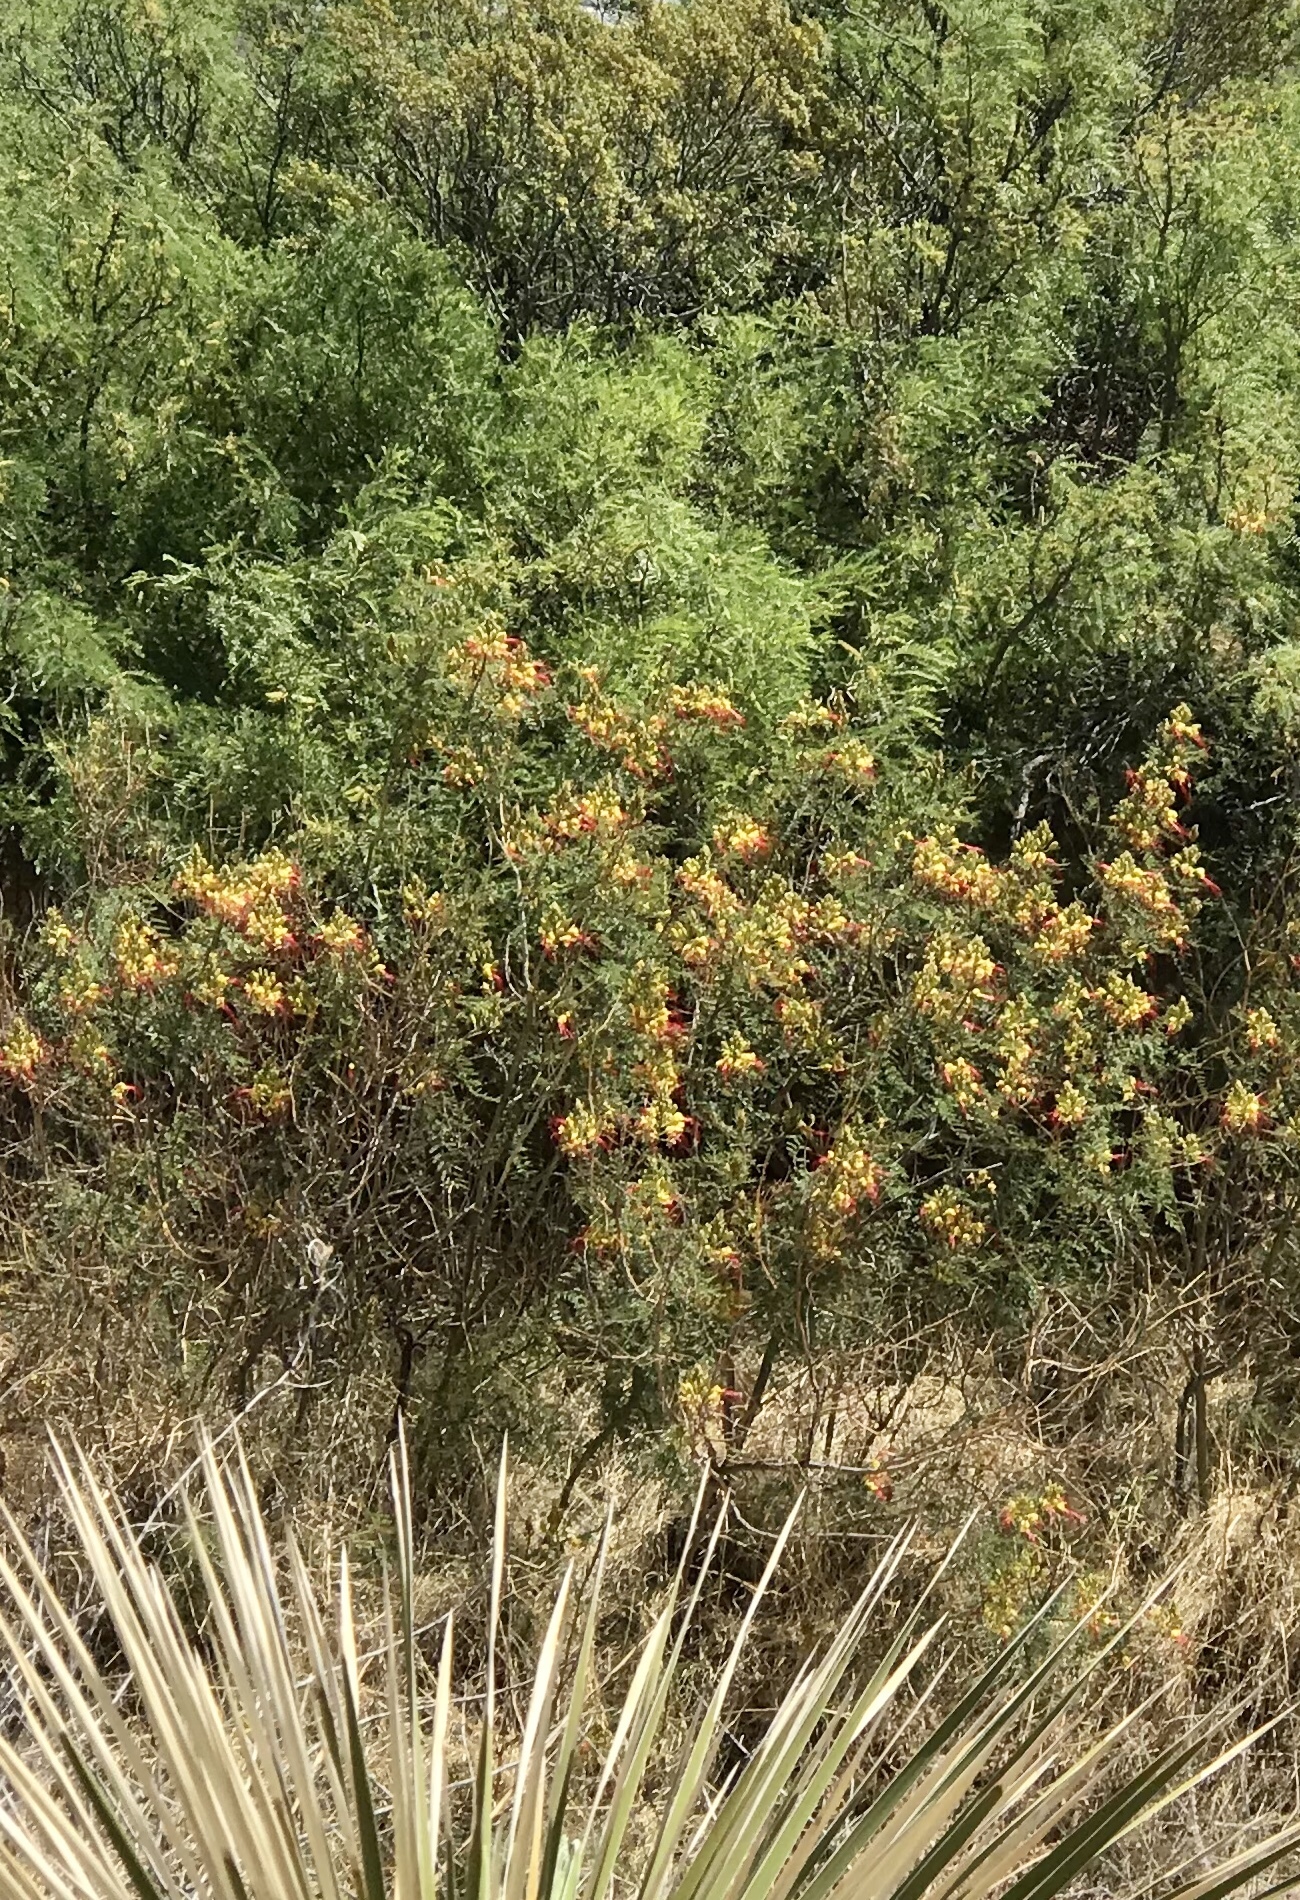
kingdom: Plantae
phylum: Tracheophyta
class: Magnoliopsida
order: Fabales
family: Fabaceae
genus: Erythrostemon
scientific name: Erythrostemon gilliesii
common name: Bird-of-paradise shrub
